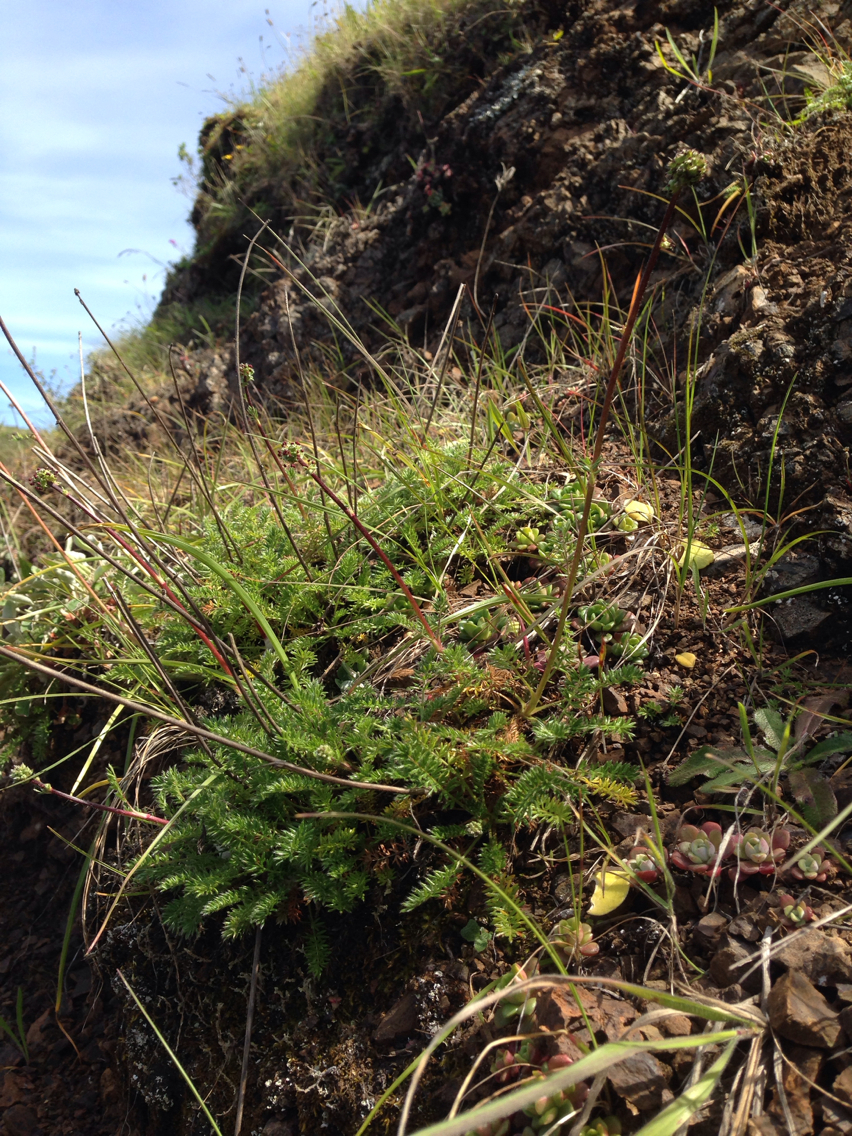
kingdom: Plantae
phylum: Tracheophyta
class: Magnoliopsida
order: Rosales
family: Rosaceae
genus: Acaena
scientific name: Acaena pinnatifida
